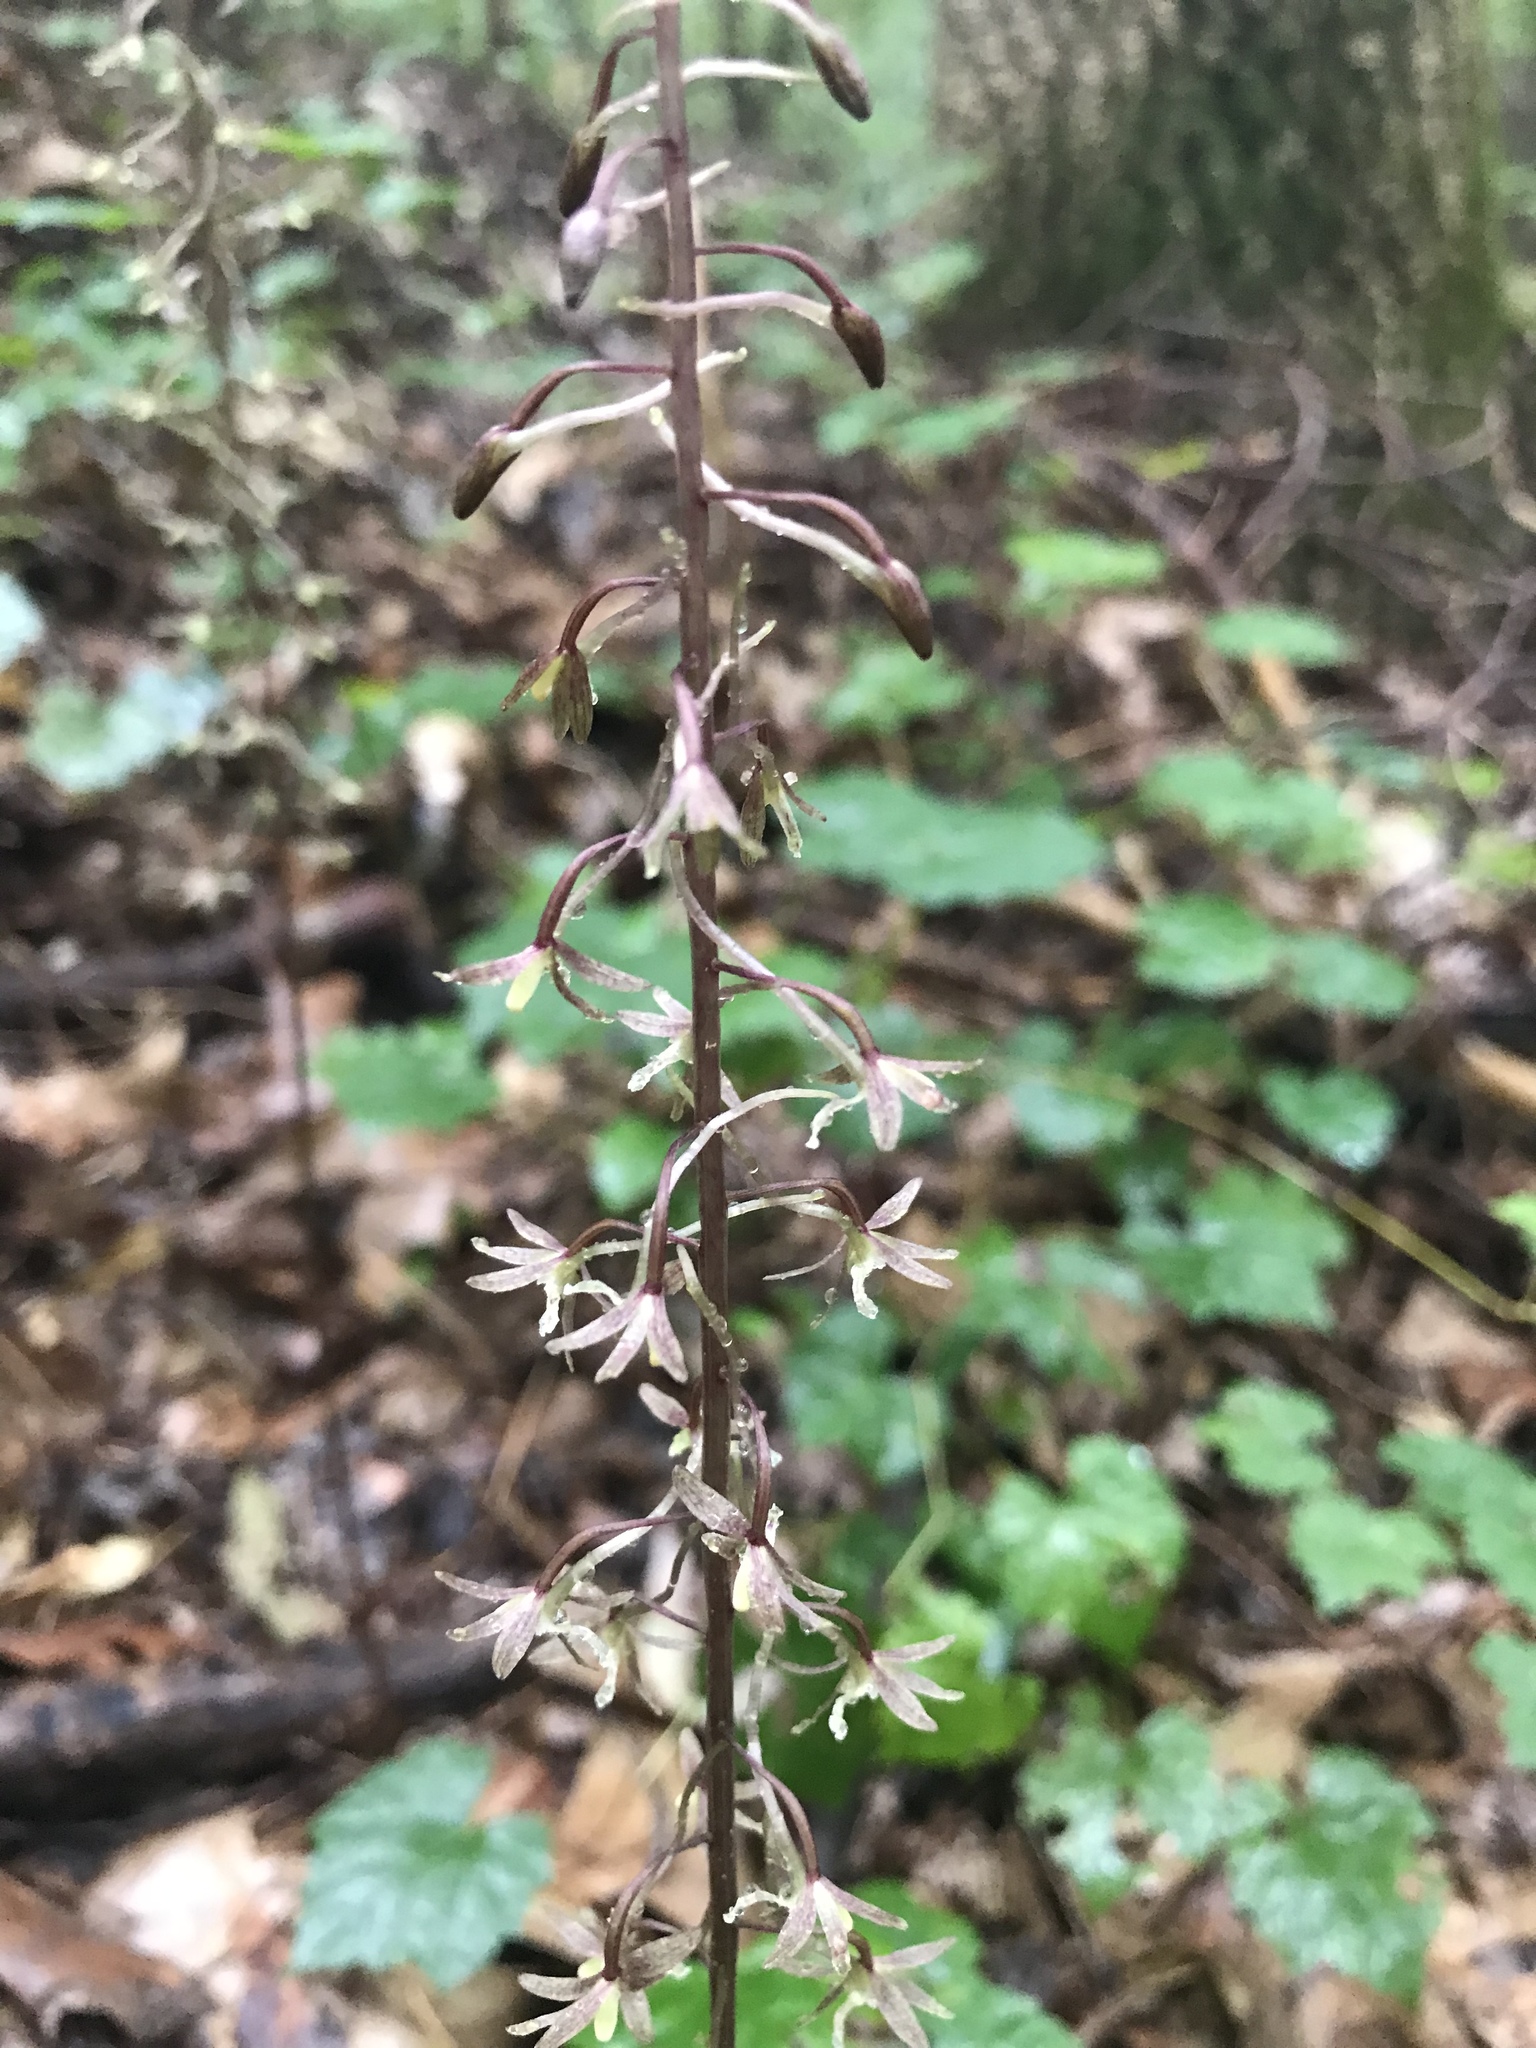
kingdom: Plantae
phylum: Tracheophyta
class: Liliopsida
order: Asparagales
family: Orchidaceae
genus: Tipularia
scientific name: Tipularia discolor
